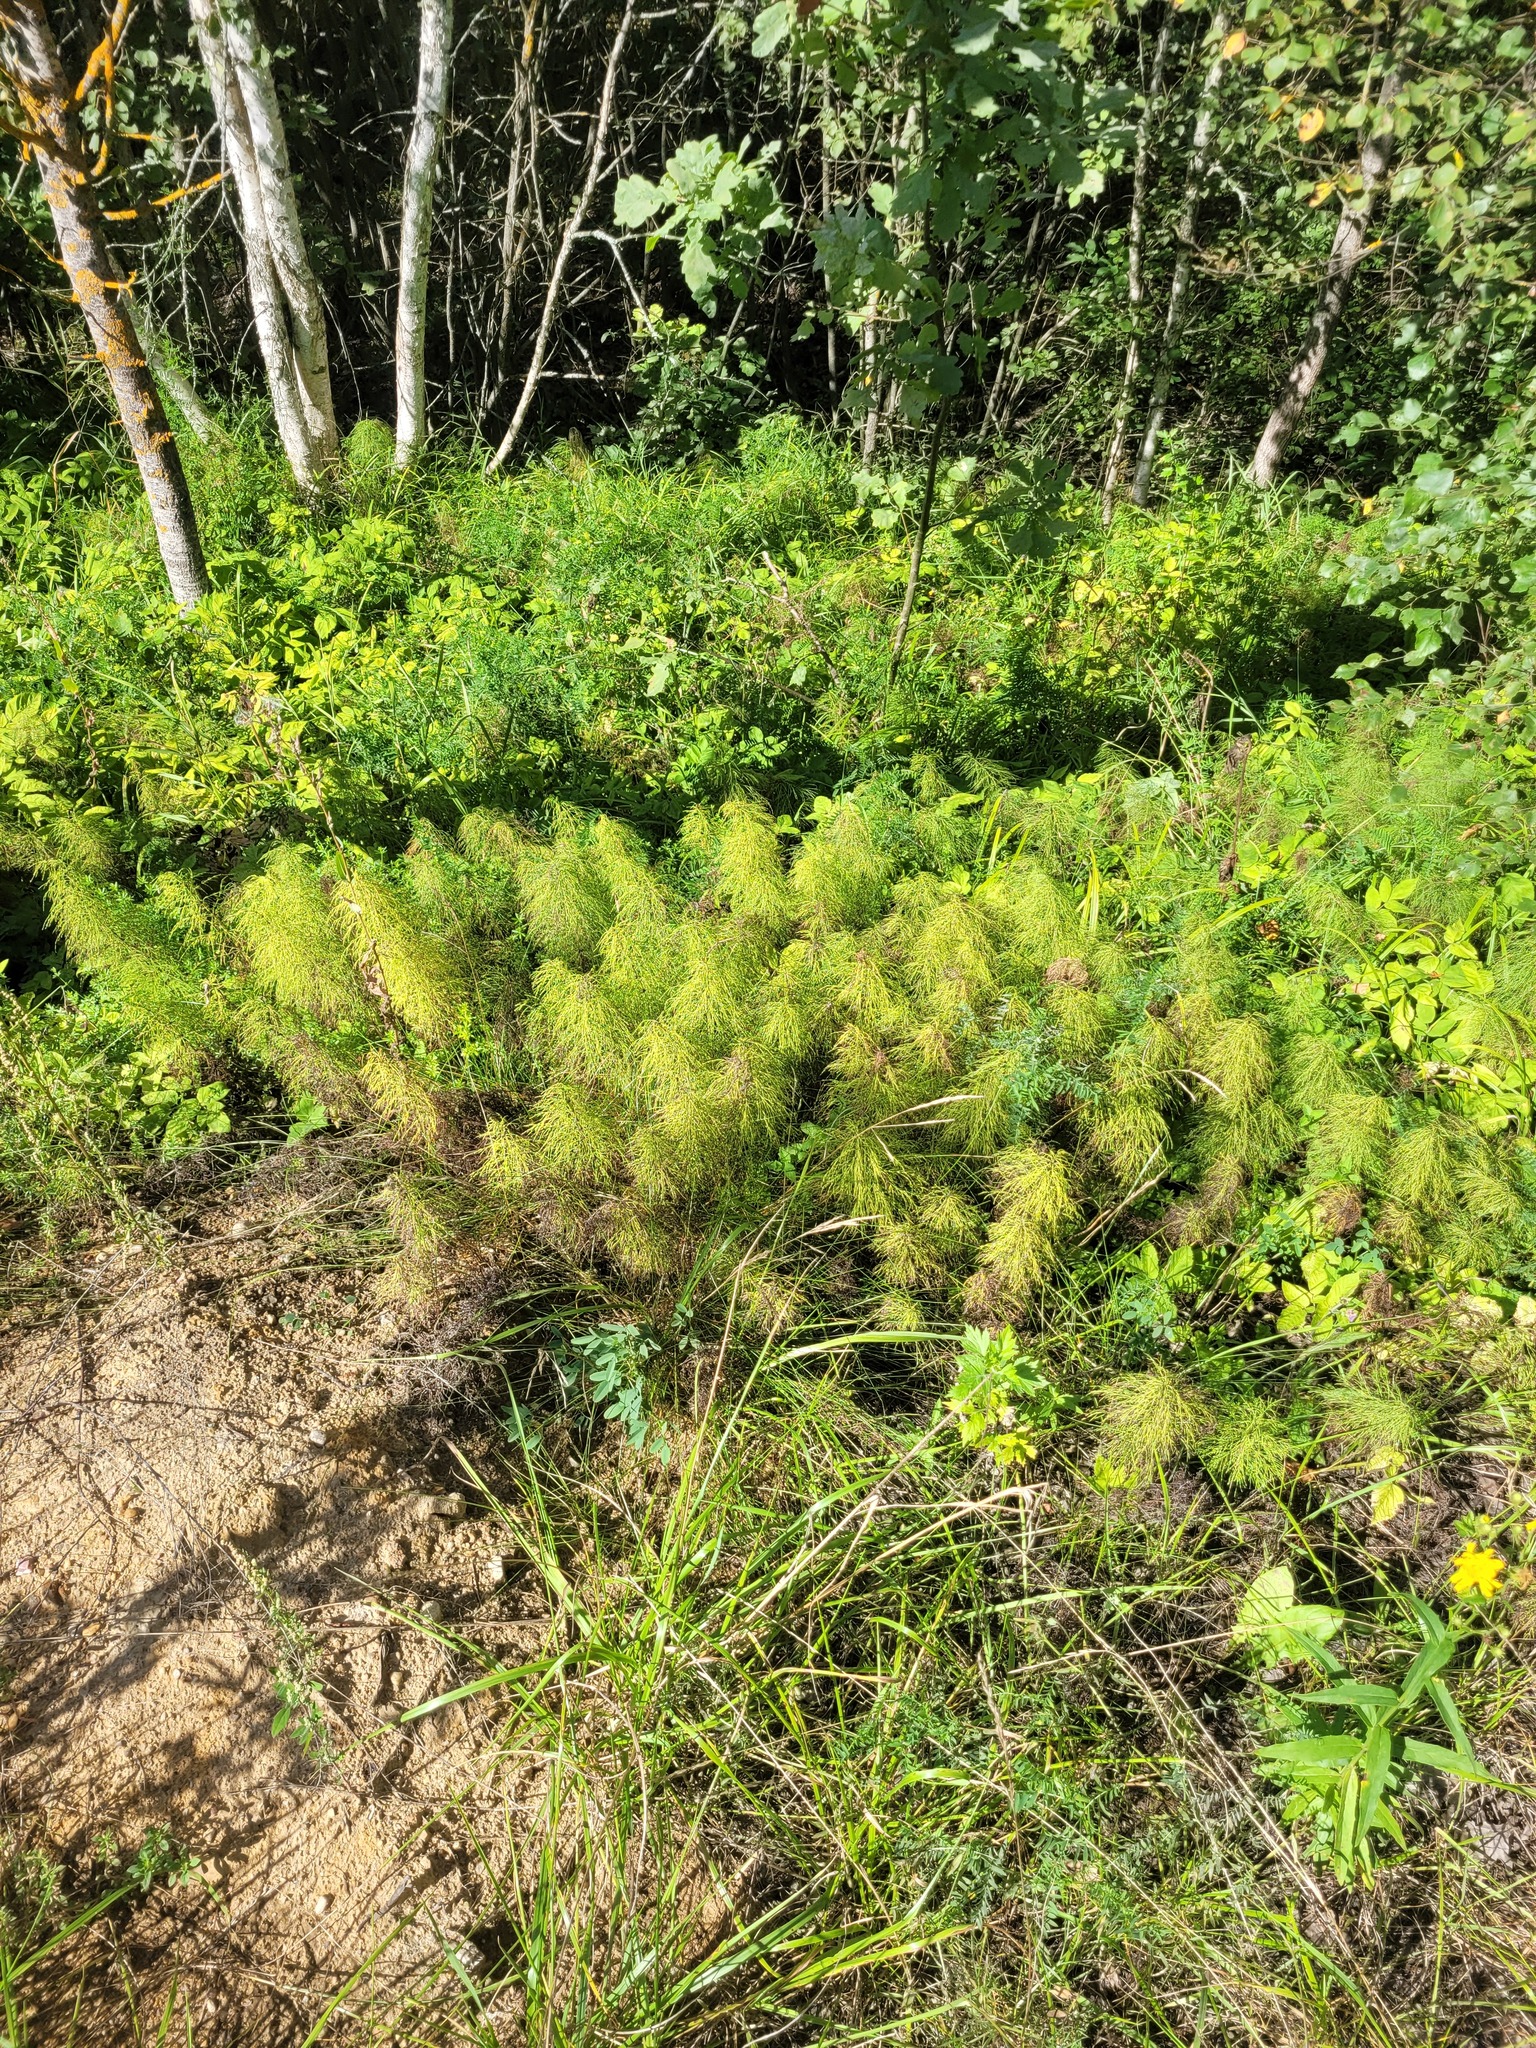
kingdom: Plantae
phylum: Tracheophyta
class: Polypodiopsida
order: Equisetales
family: Equisetaceae
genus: Equisetum
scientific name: Equisetum sylvaticum
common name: Wood horsetail
